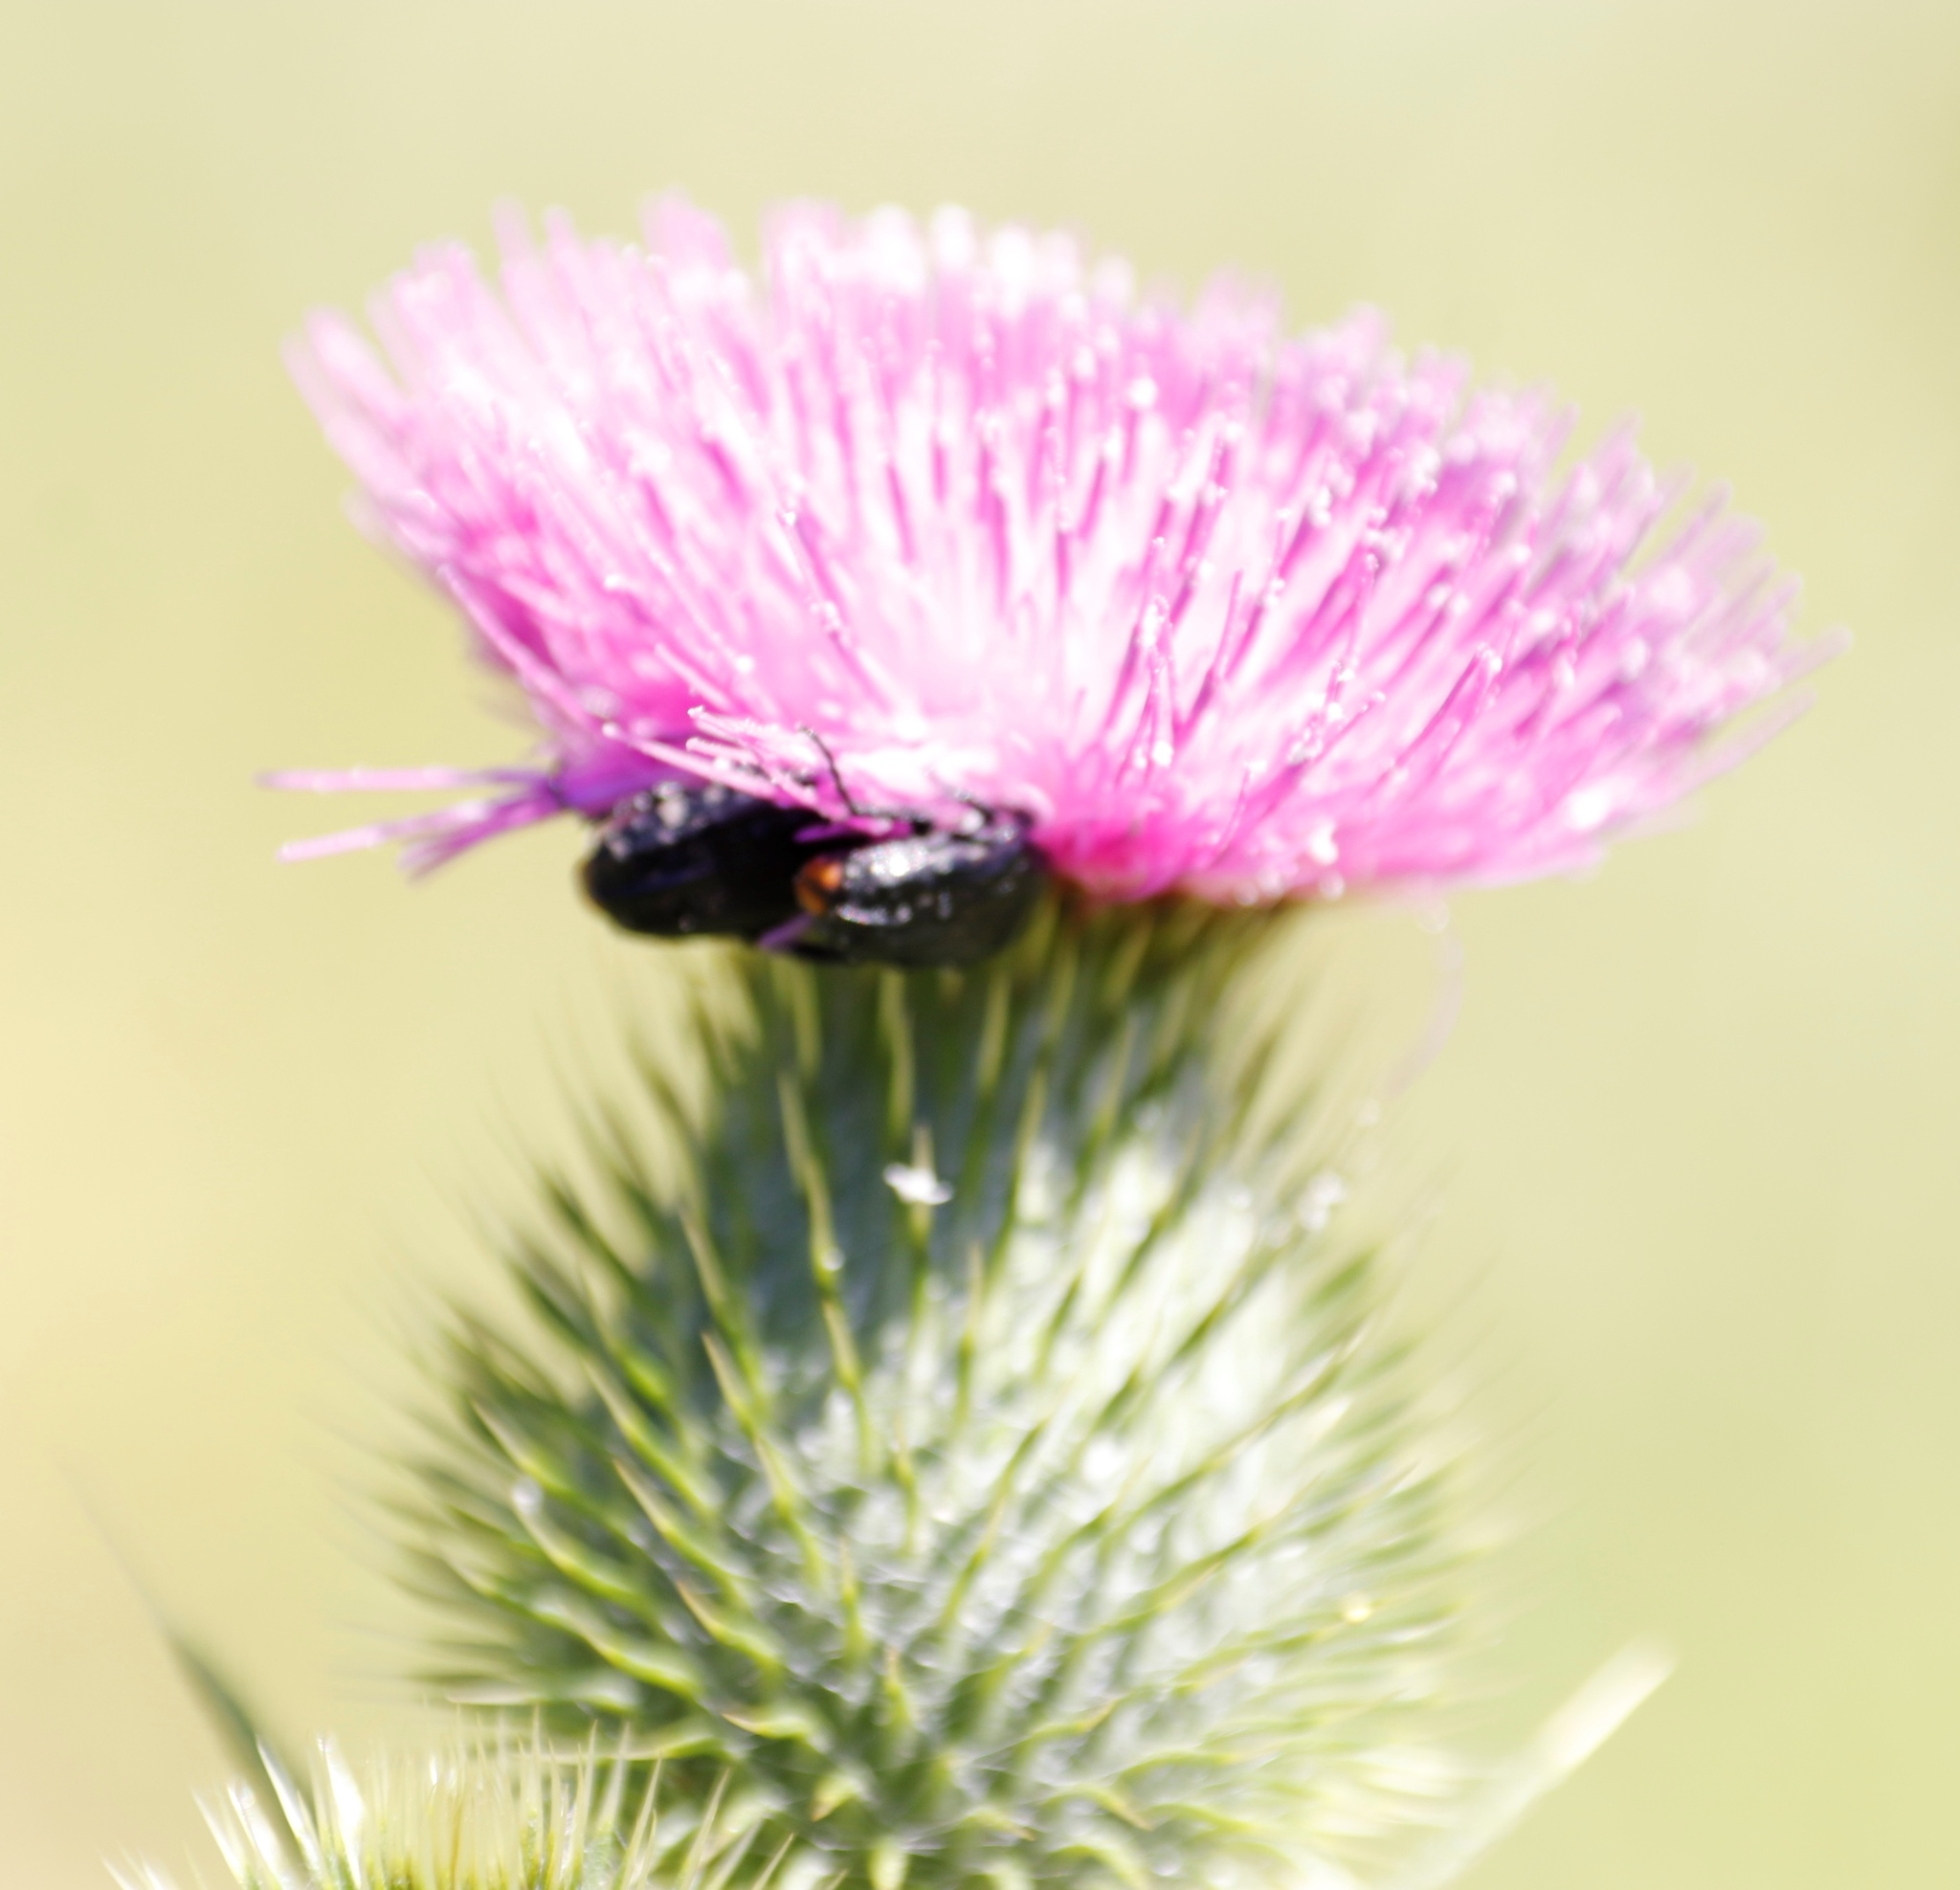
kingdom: Plantae
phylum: Tracheophyta
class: Magnoliopsida
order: Asterales
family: Asteraceae
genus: Cirsium
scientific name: Cirsium vulgare
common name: Bull thistle
